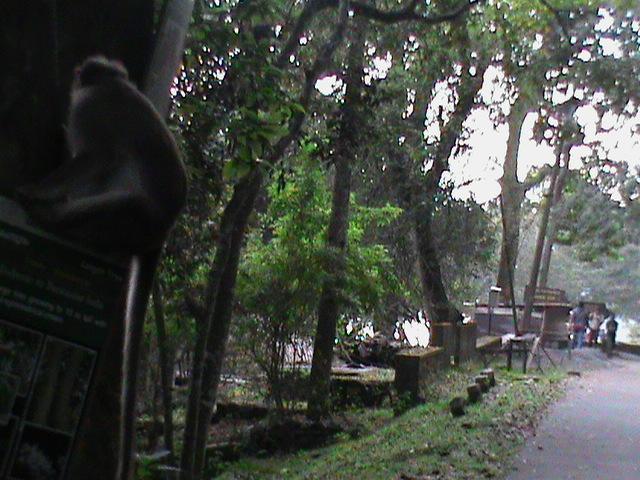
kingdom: Animalia
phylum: Chordata
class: Mammalia
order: Primates
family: Cercopithecidae
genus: Macaca
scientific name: Macaca radiata
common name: Bonnet macaque
